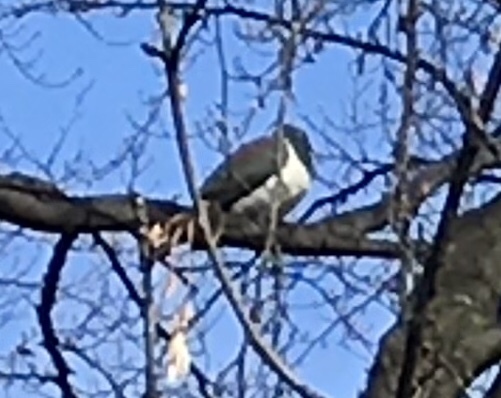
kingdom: Animalia
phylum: Chordata
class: Aves
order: Columbiformes
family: Columbidae
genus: Hemiphaga
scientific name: Hemiphaga novaeseelandiae
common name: New zealand pigeon
